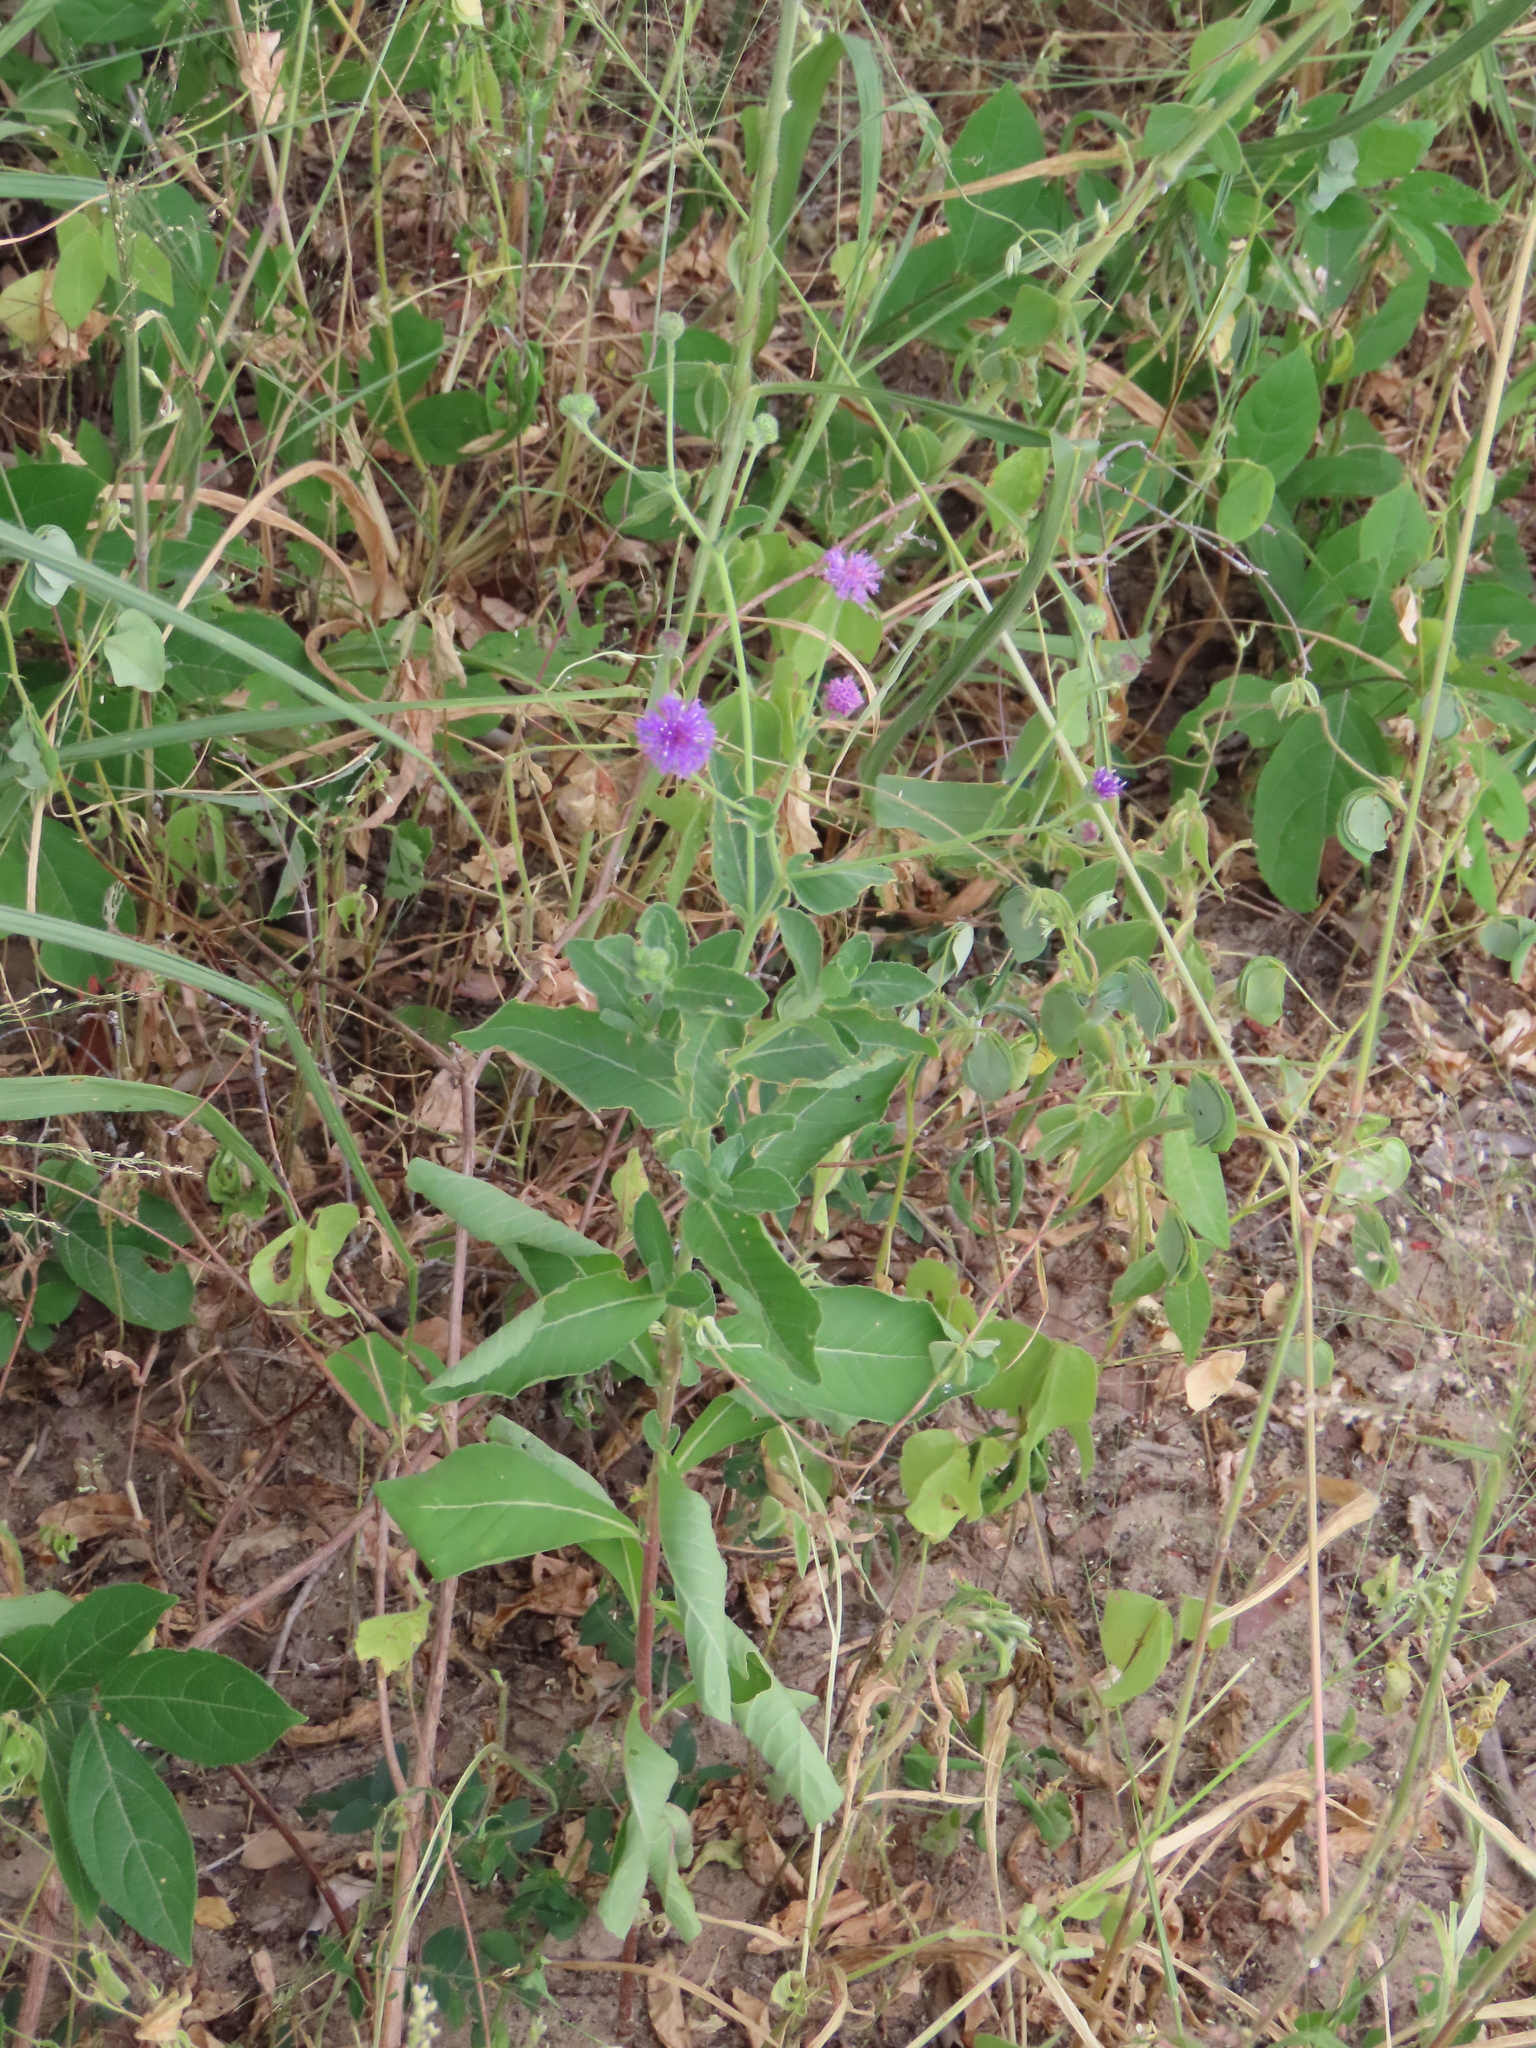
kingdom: Plantae
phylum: Tracheophyta
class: Magnoliopsida
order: Asterales
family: Asteraceae
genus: Linzia
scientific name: Linzia glabra
